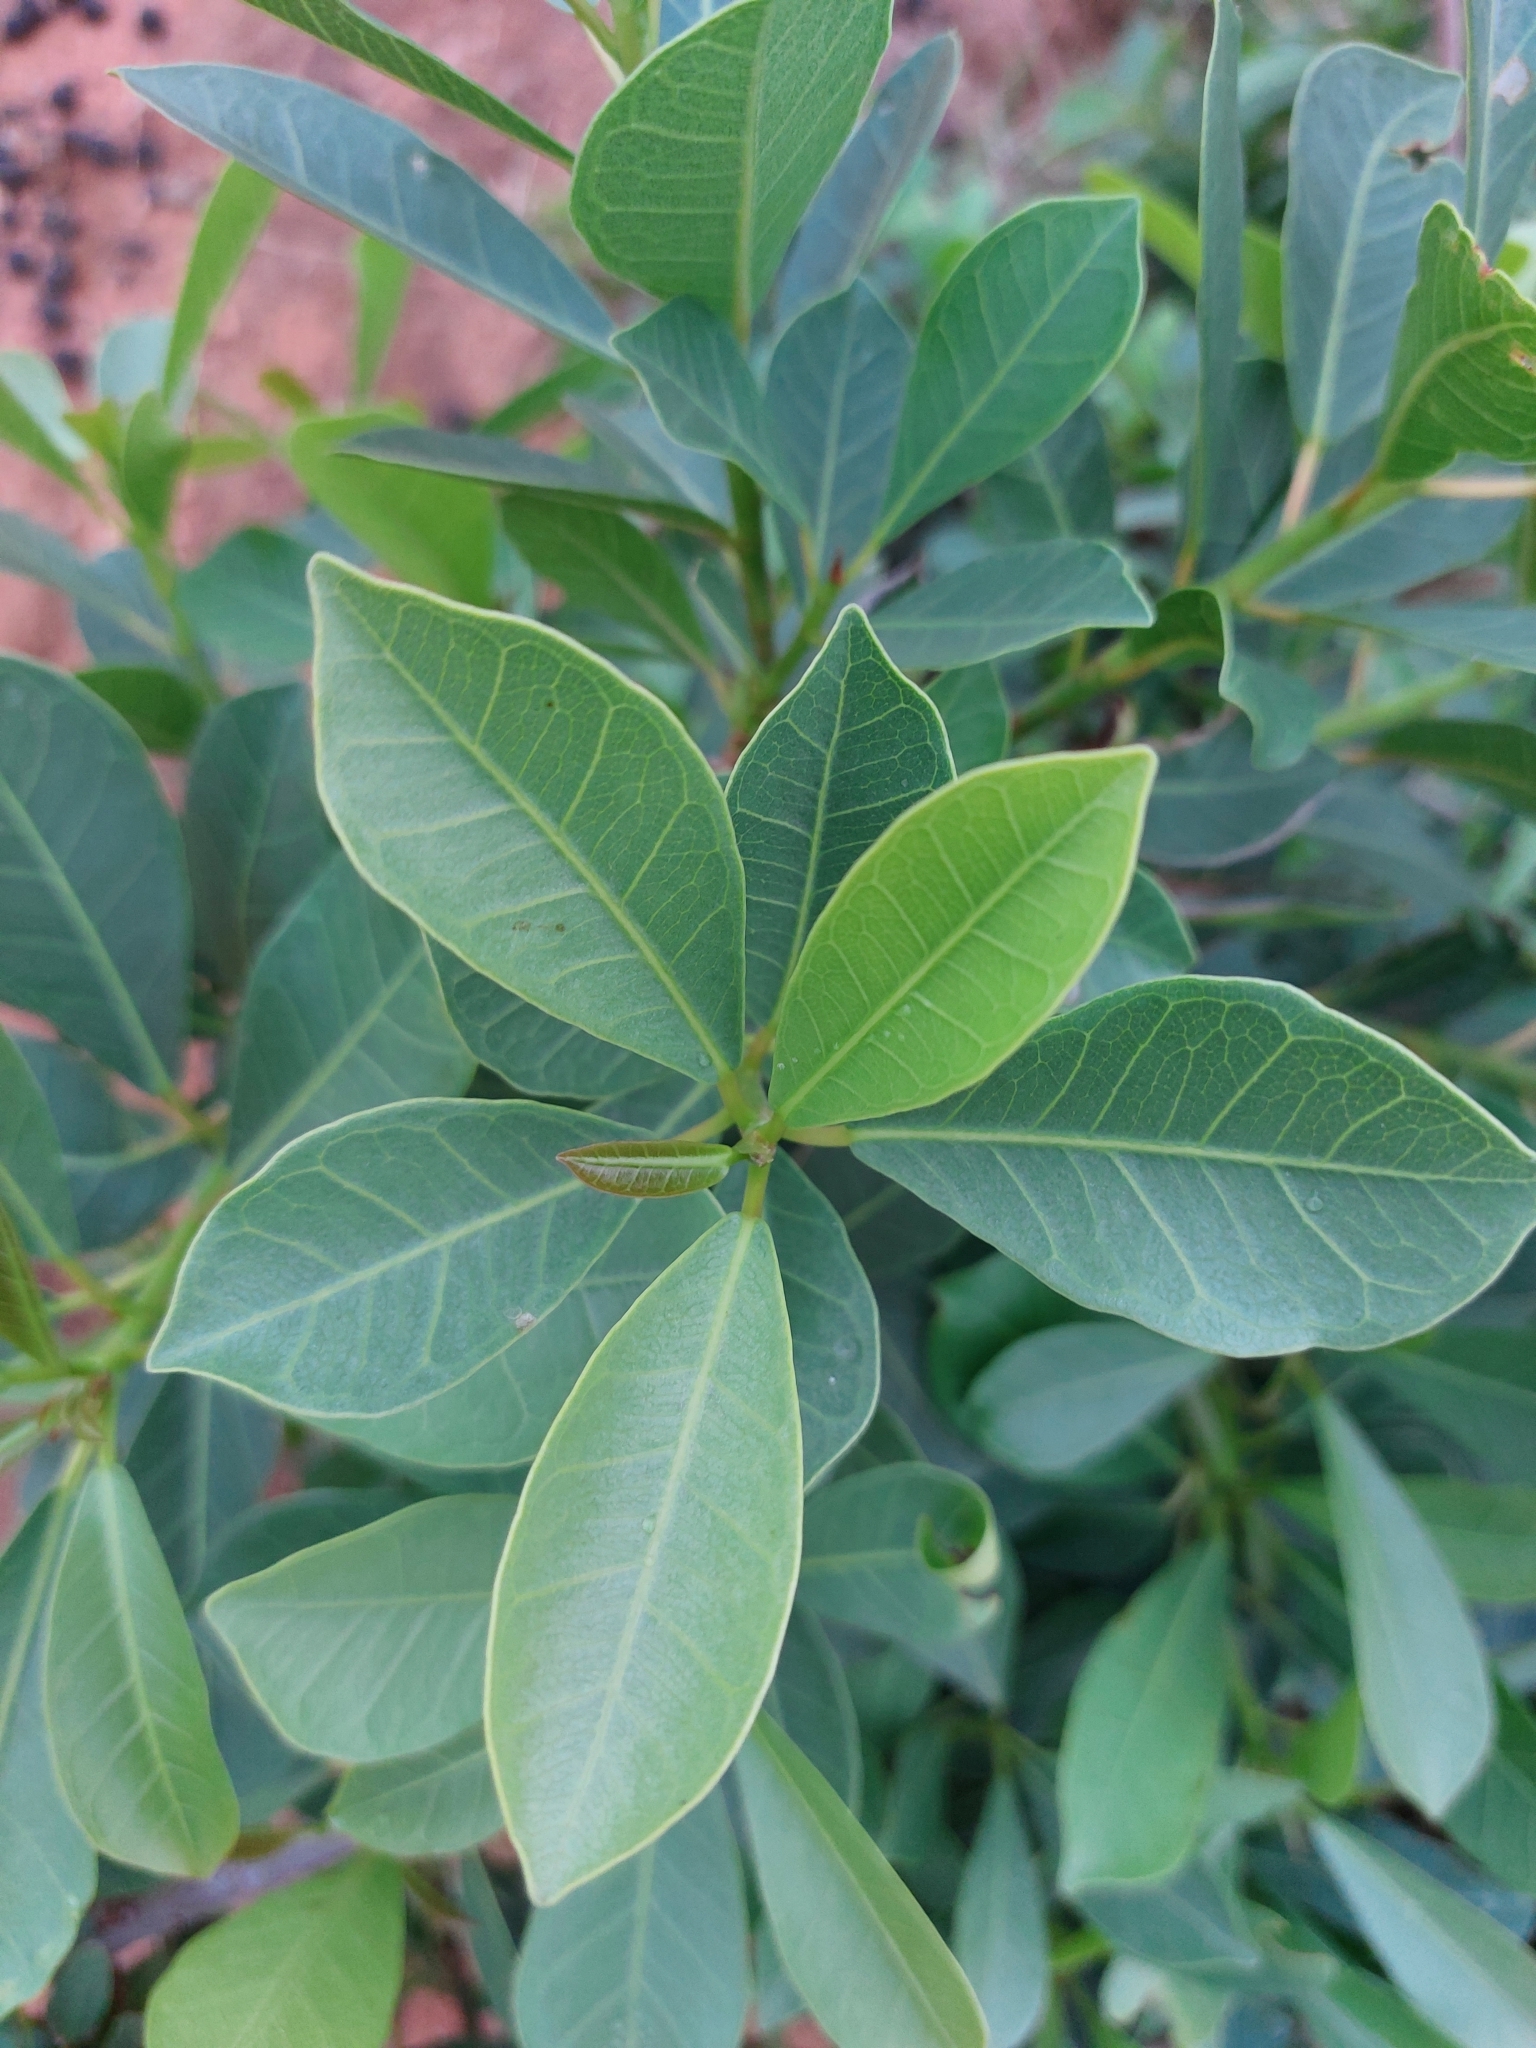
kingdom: Plantae
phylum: Tracheophyta
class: Magnoliopsida
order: Rosales
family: Moraceae
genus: Ficus
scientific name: Ficus thonningii
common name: Fig
